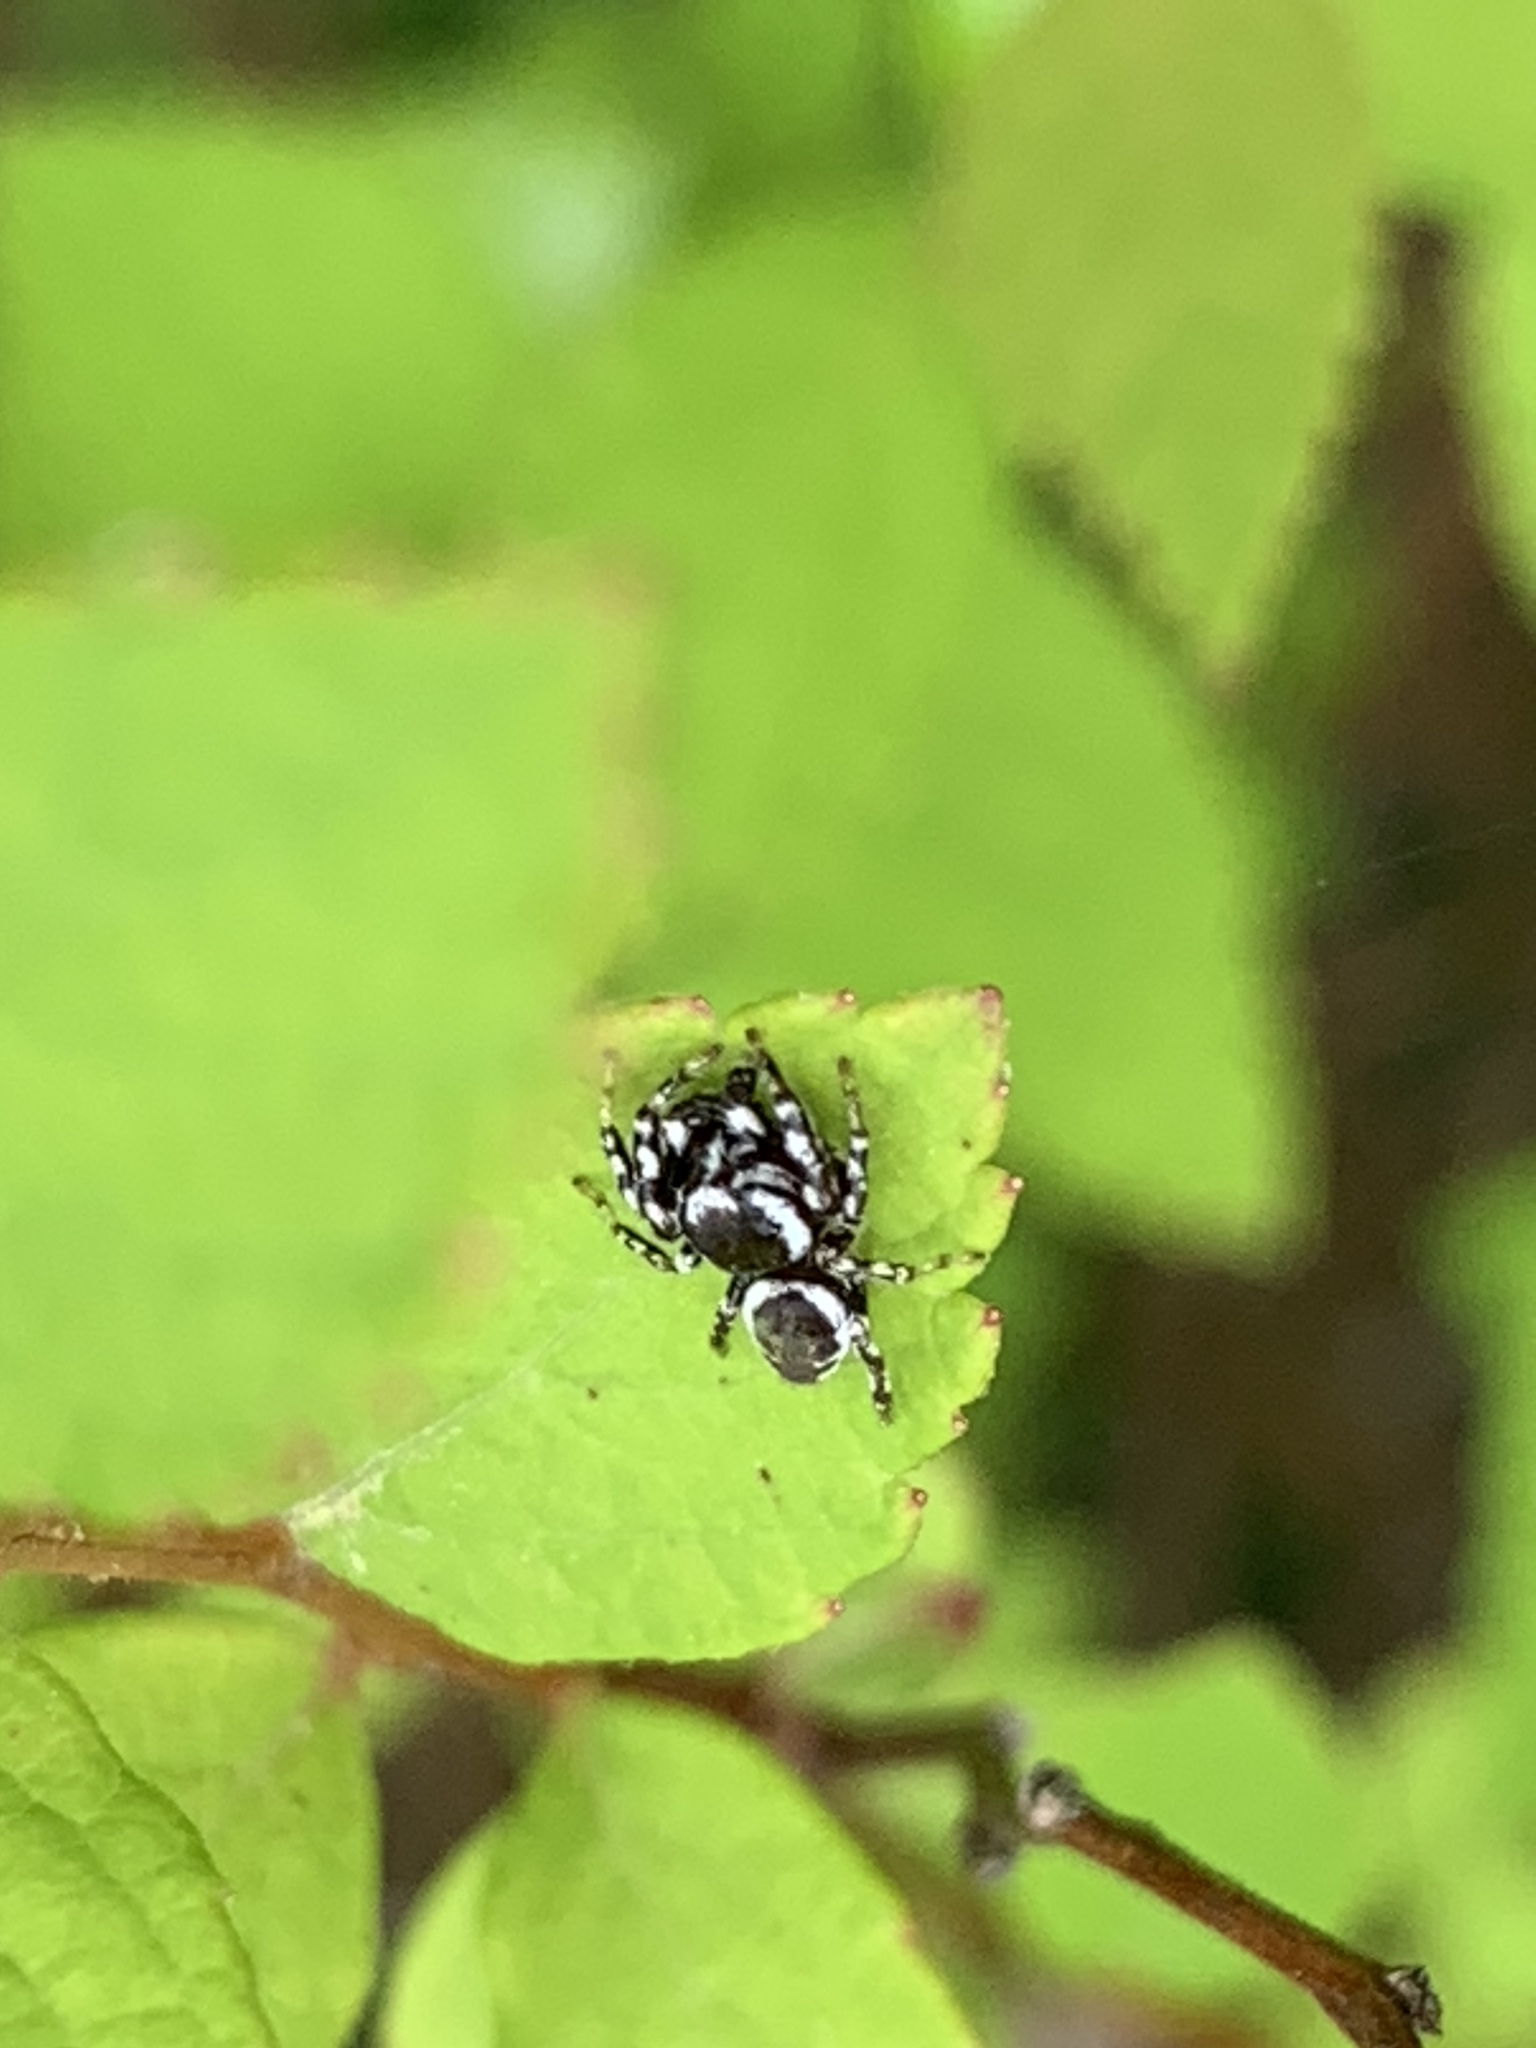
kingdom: Animalia
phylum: Arthropoda
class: Arachnida
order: Araneae
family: Salticidae
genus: Pelegrina
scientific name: Pelegrina proterva
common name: Common white-cheeked jumping spider
